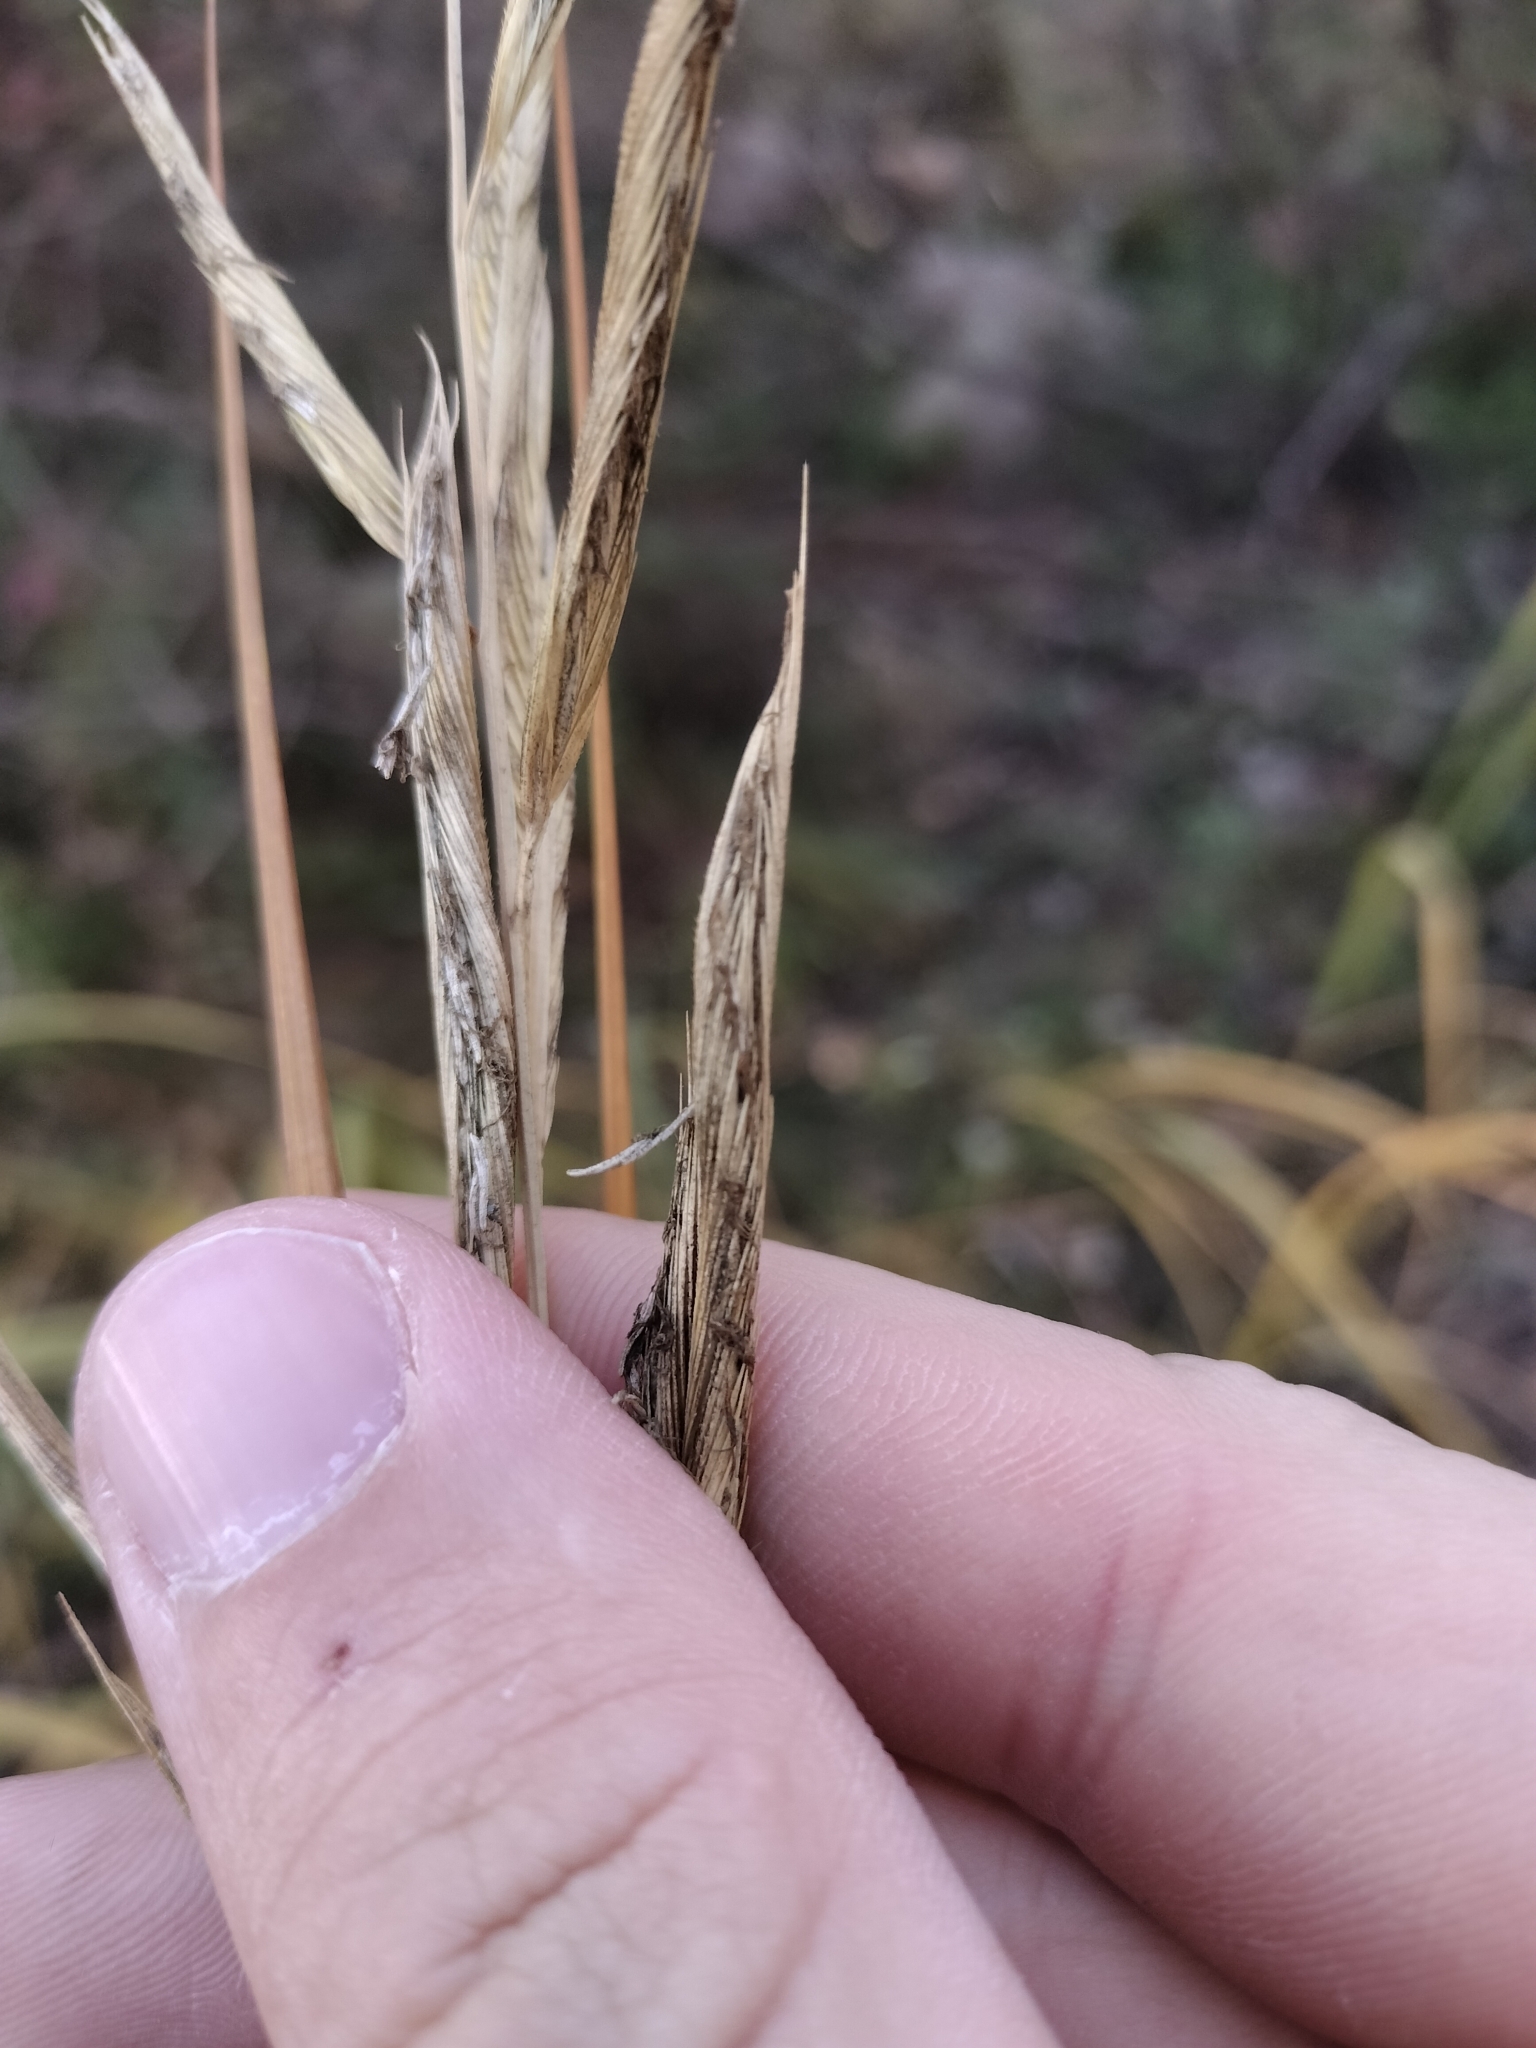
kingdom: Plantae
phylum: Tracheophyta
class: Liliopsida
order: Poales
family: Poaceae
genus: Sporobolus
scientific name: Sporobolus michauxianus
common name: Freshwater cordgrass
